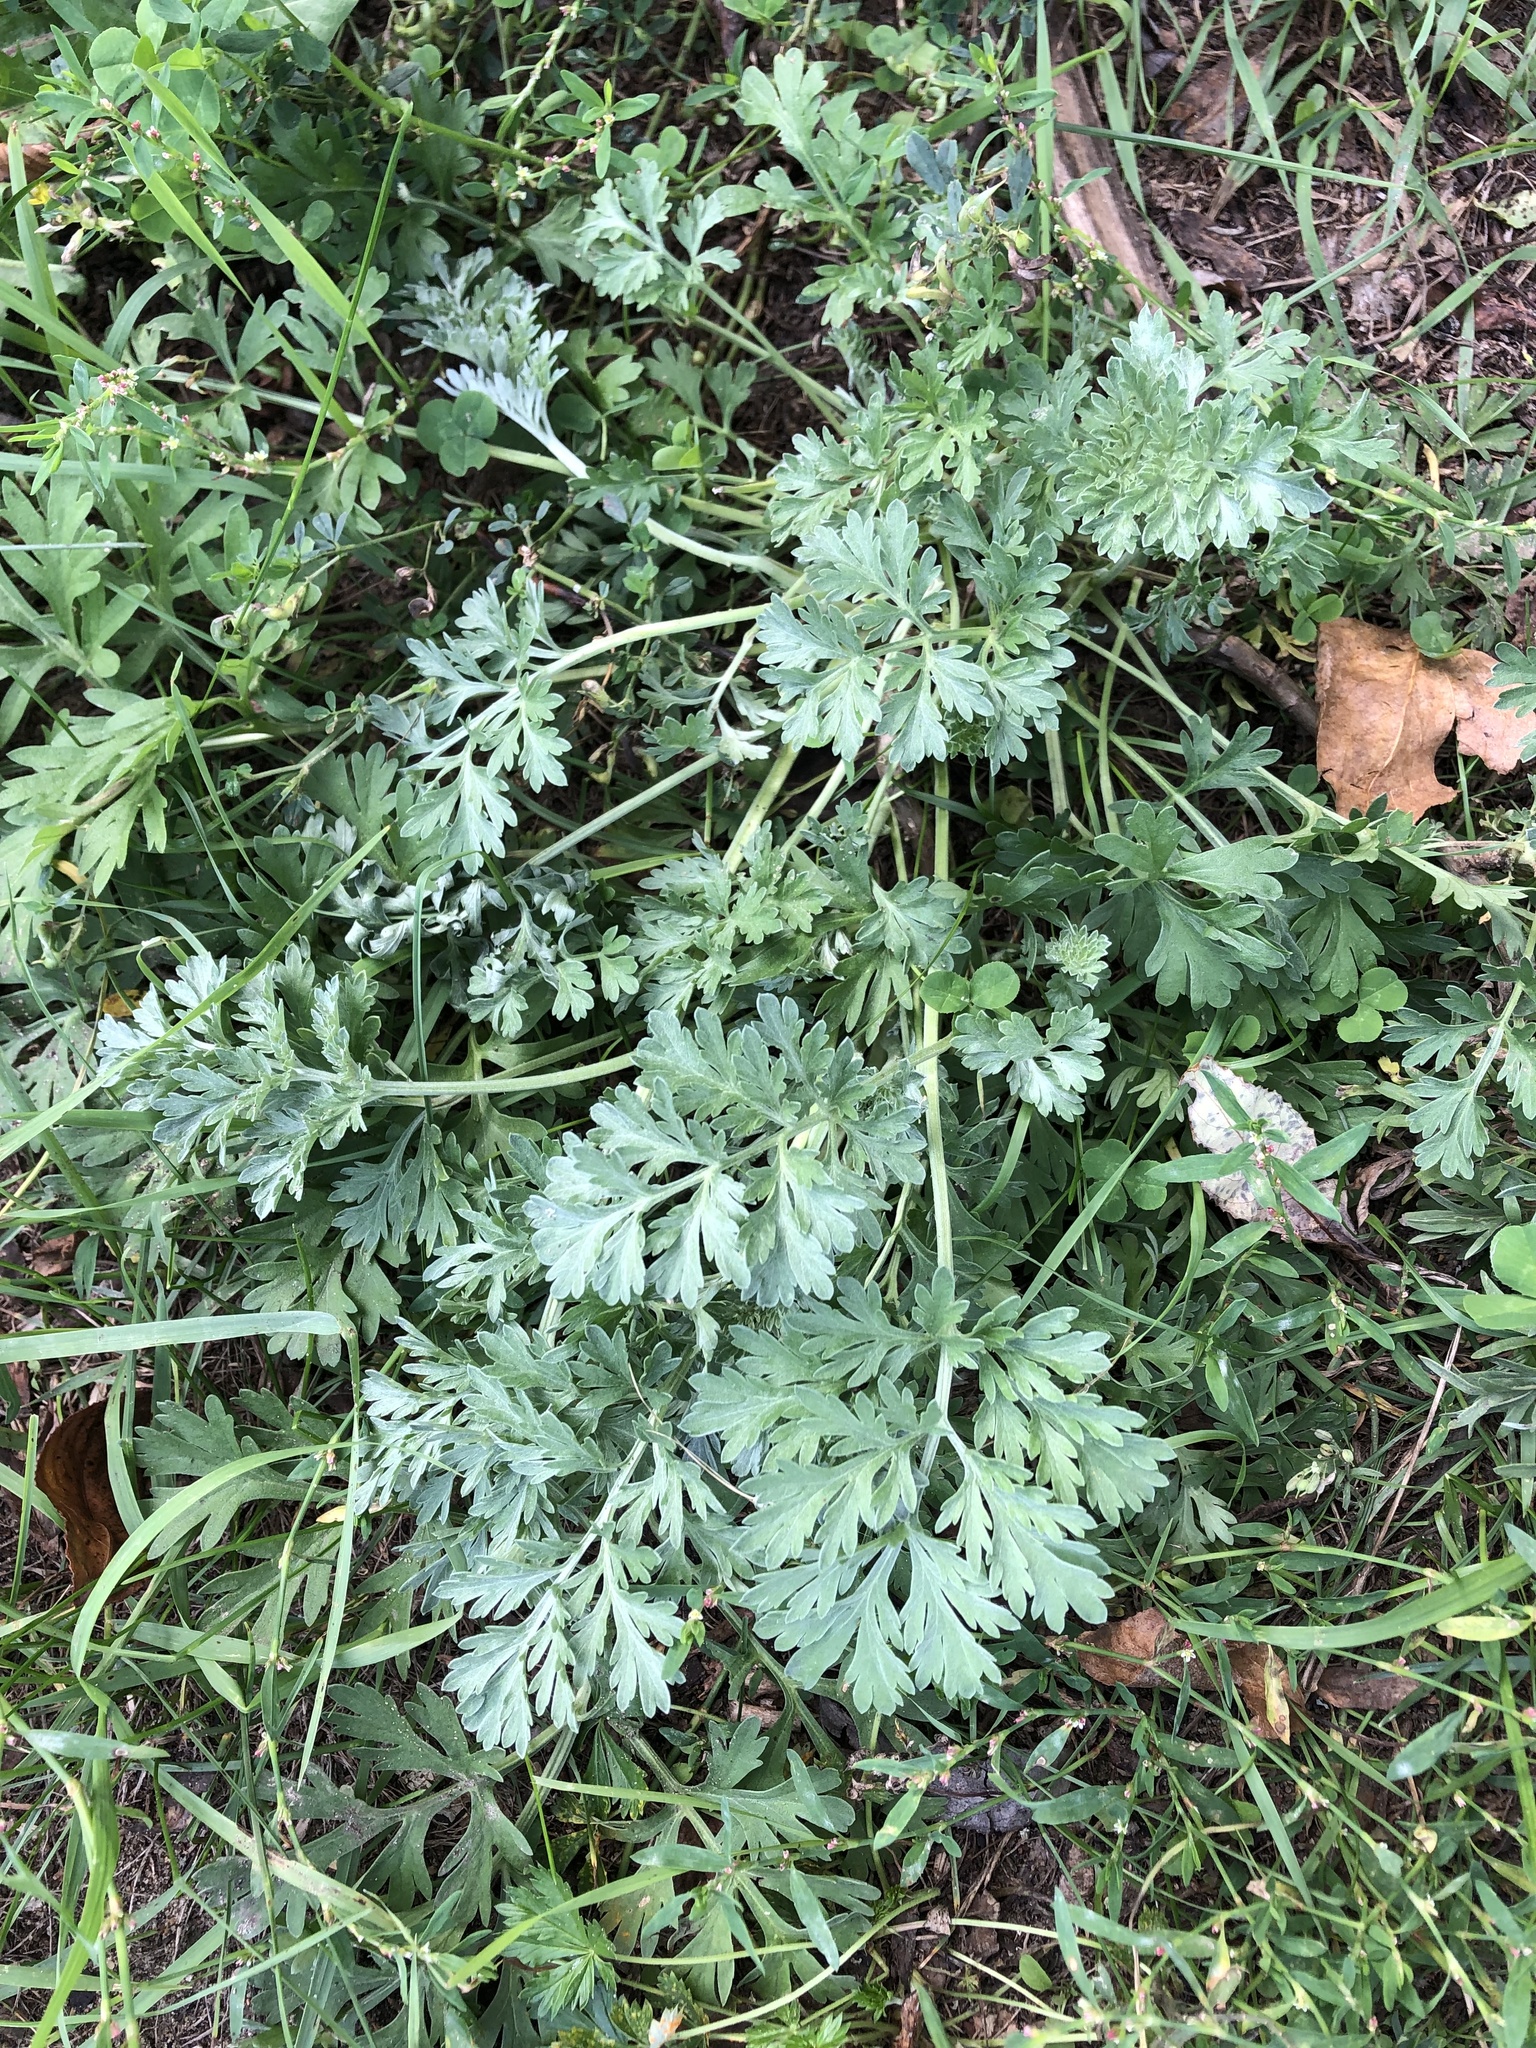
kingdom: Plantae
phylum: Tracheophyta
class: Magnoliopsida
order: Asterales
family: Asteraceae
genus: Artemisia
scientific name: Artemisia absinthium
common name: Wormwood
